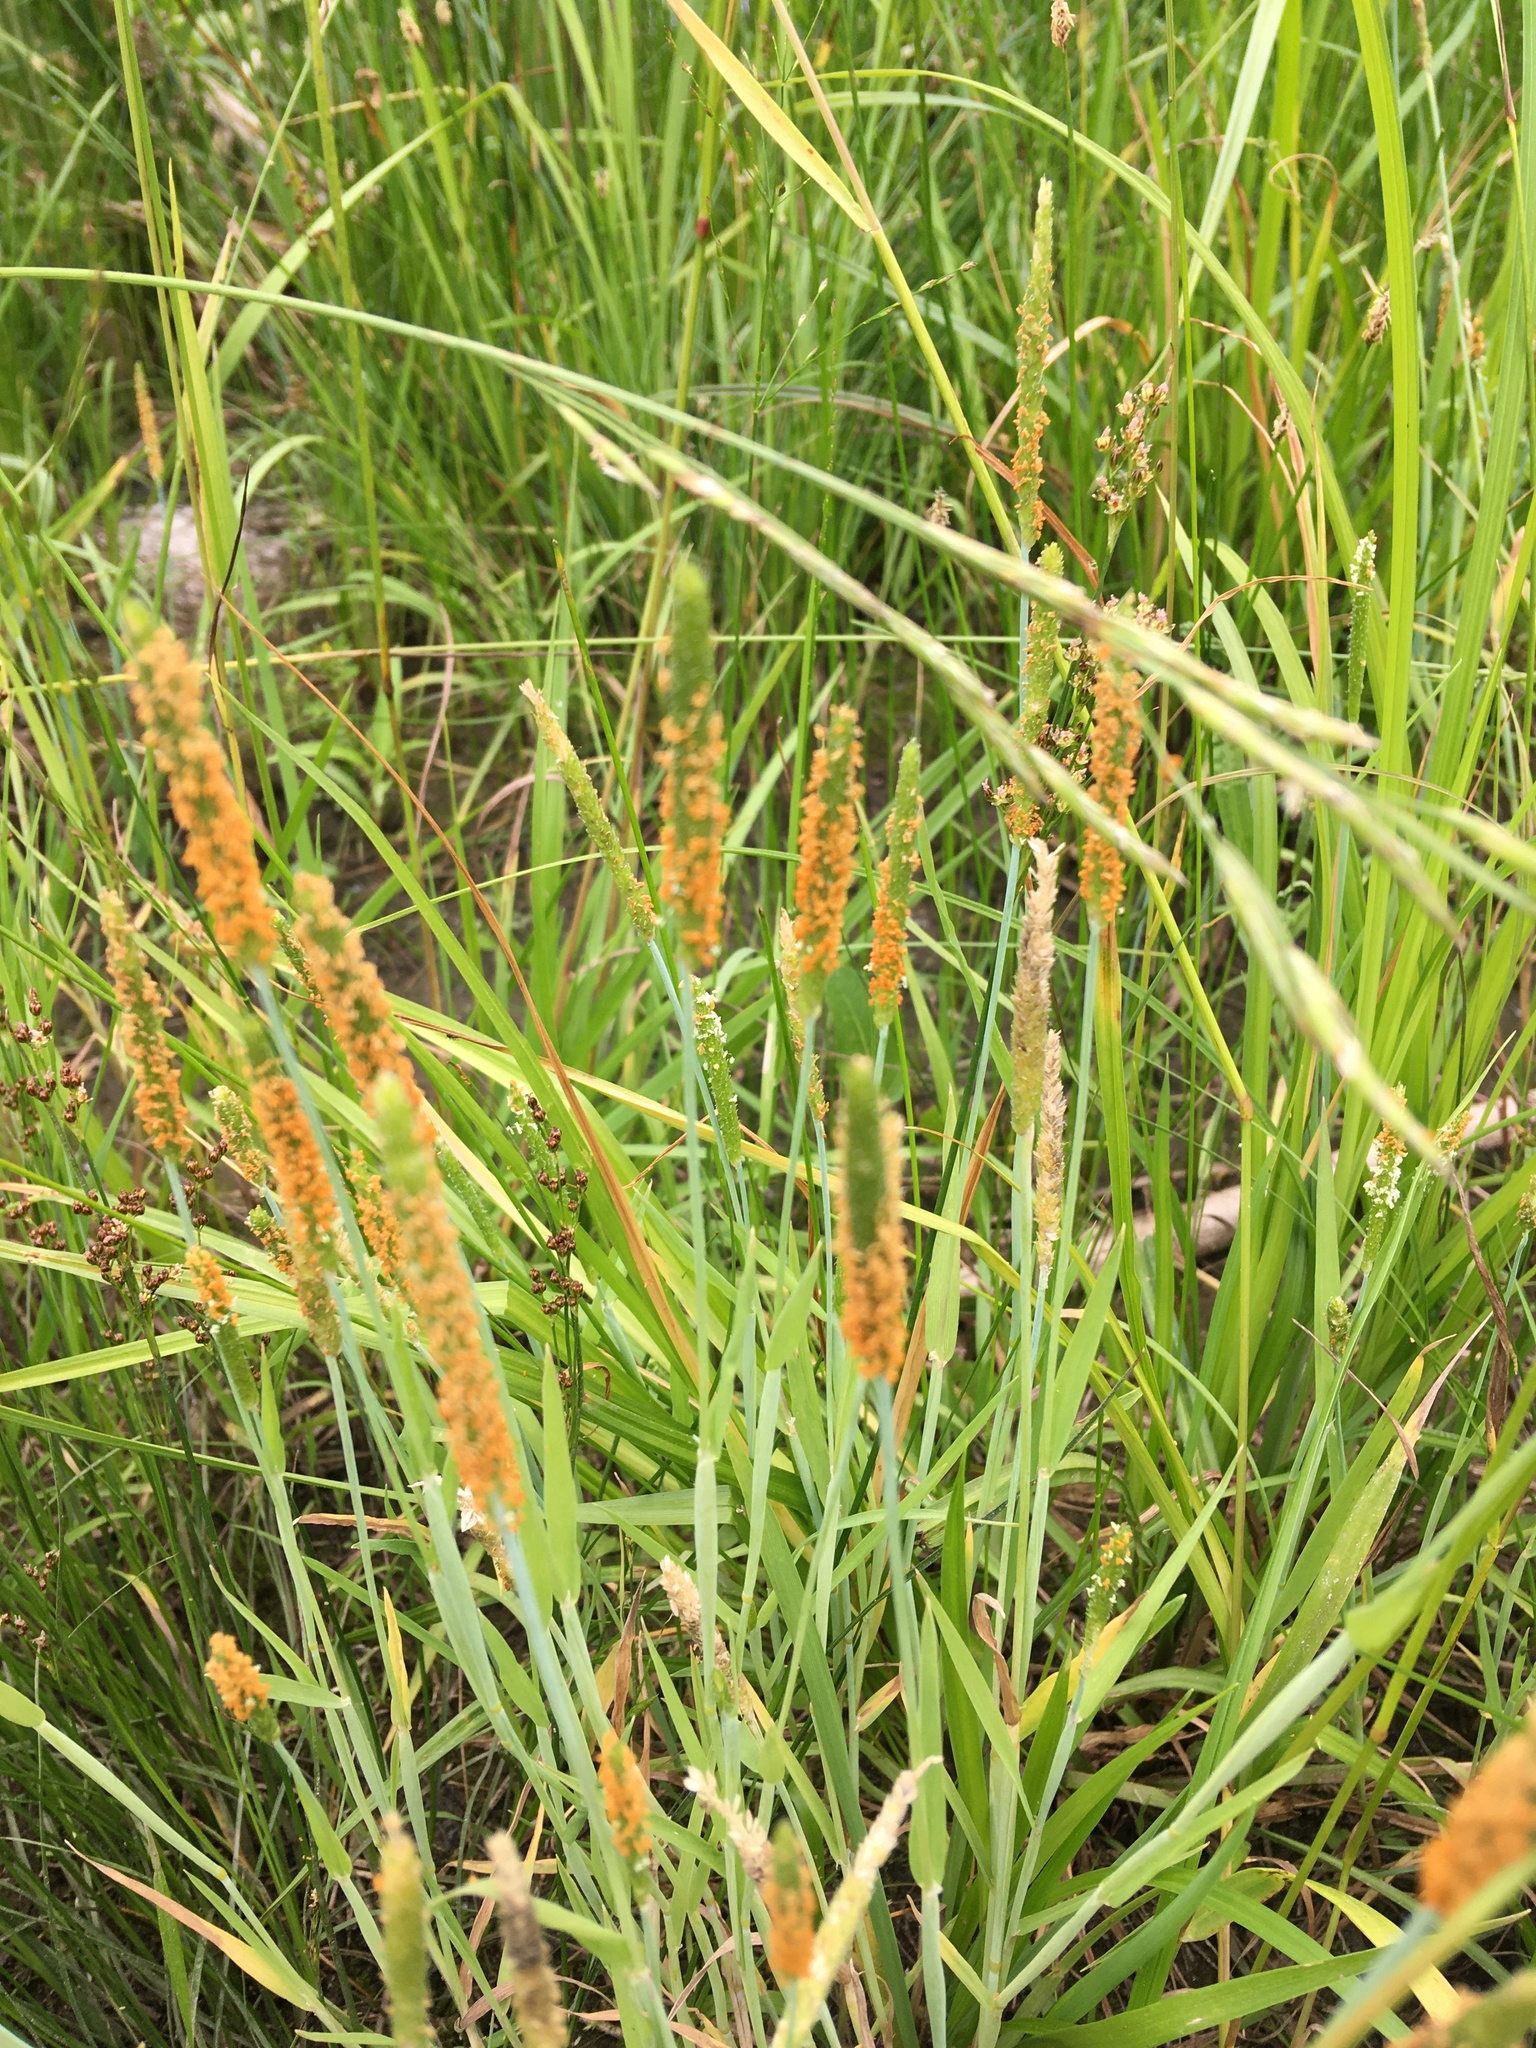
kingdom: Plantae
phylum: Tracheophyta
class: Liliopsida
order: Poales
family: Poaceae
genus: Alopecurus
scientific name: Alopecurus aequalis
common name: Orange foxtail
